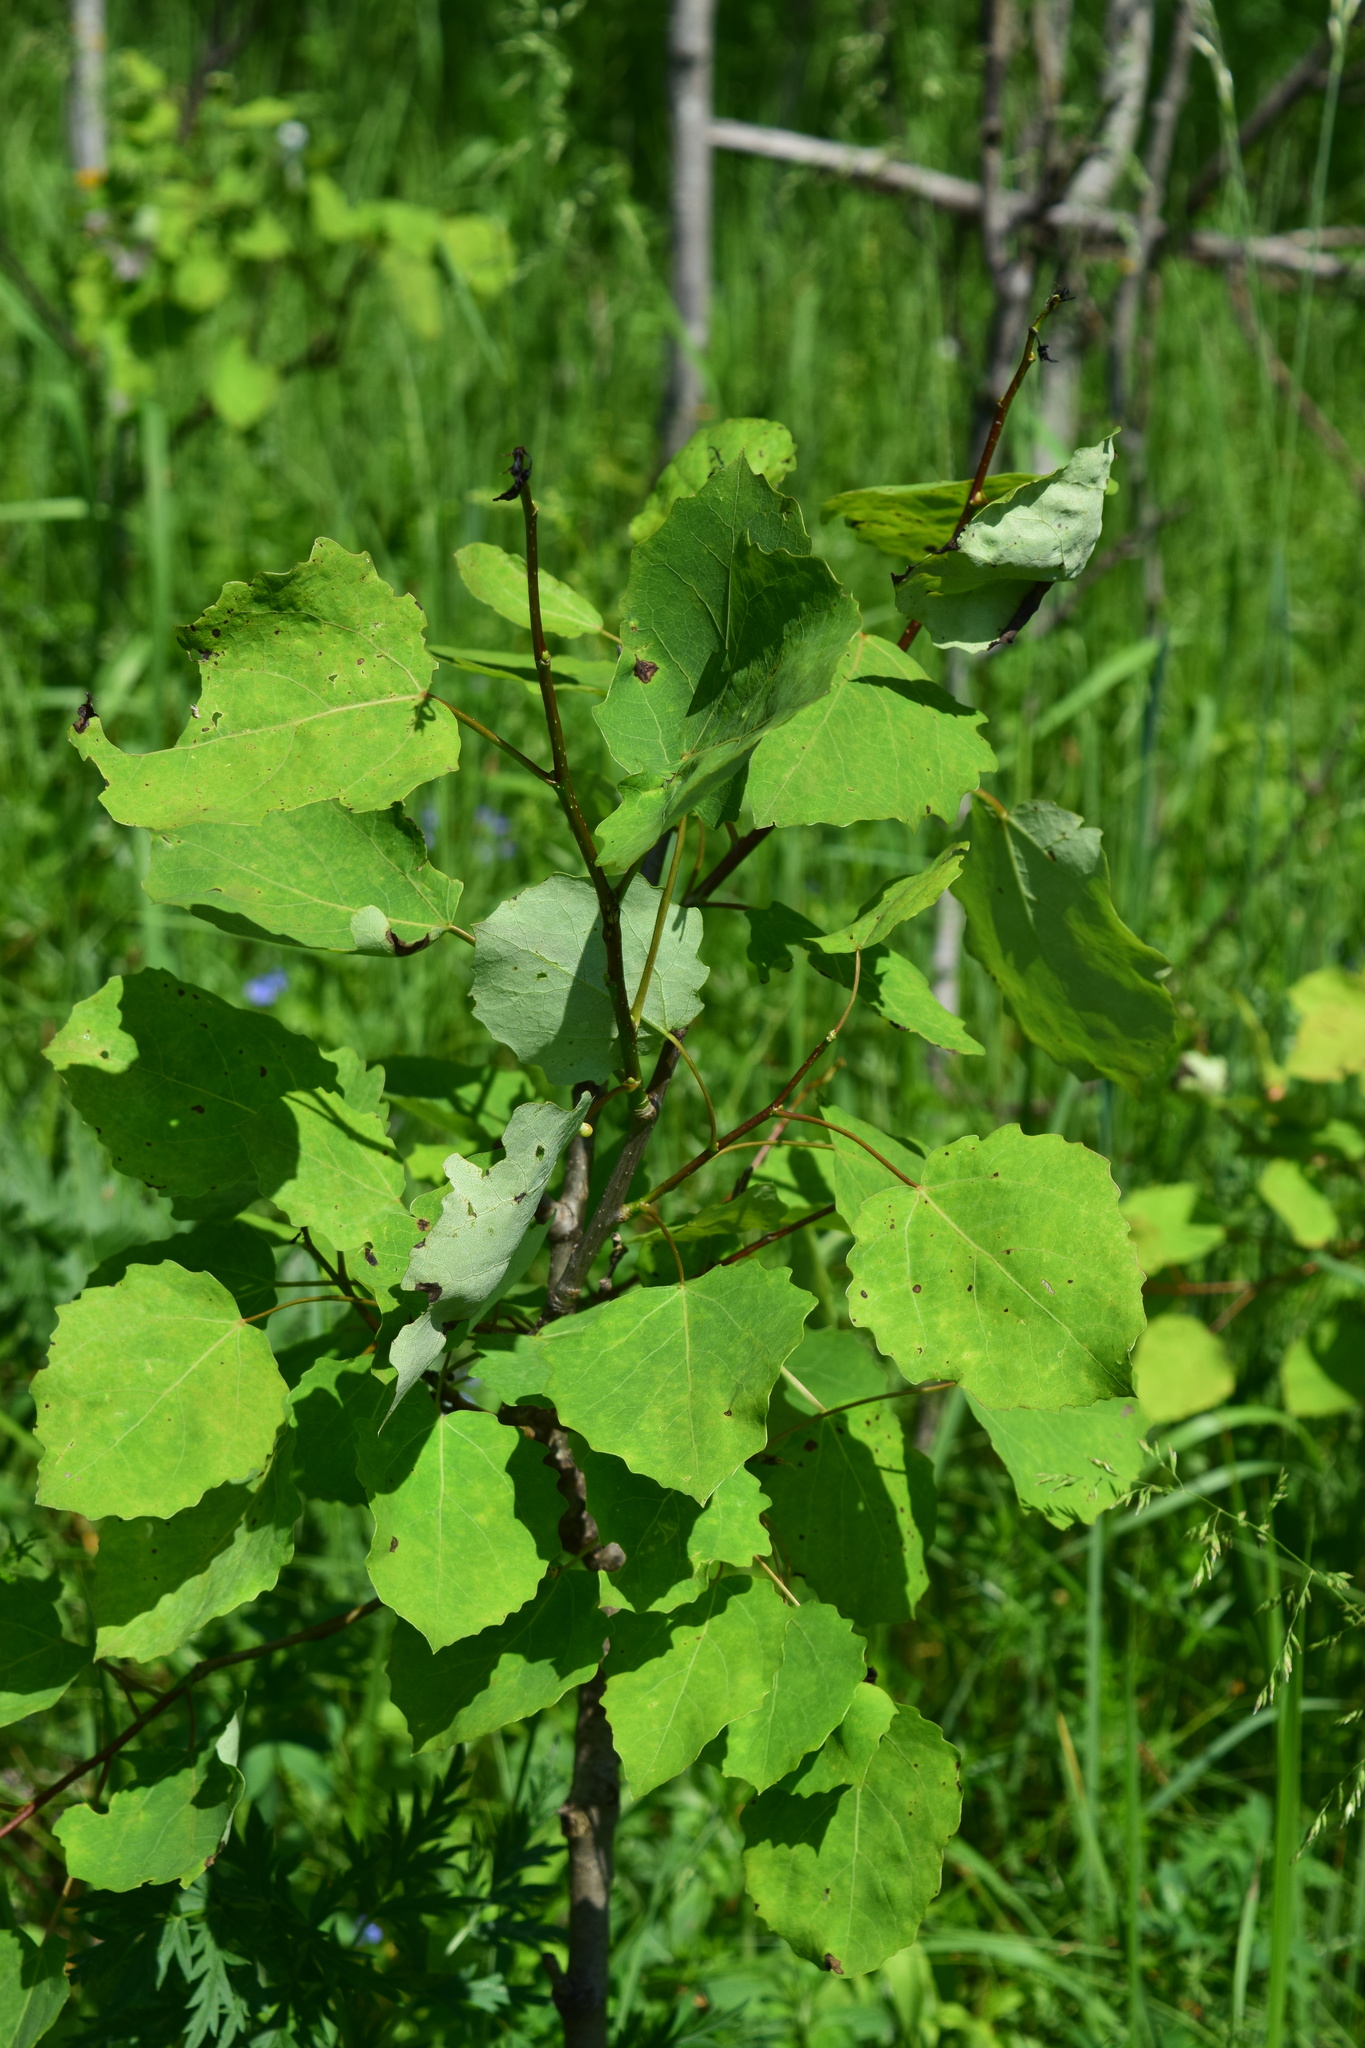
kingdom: Plantae
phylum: Tracheophyta
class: Magnoliopsida
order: Malpighiales
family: Salicaceae
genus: Populus
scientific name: Populus tremula
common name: European aspen
